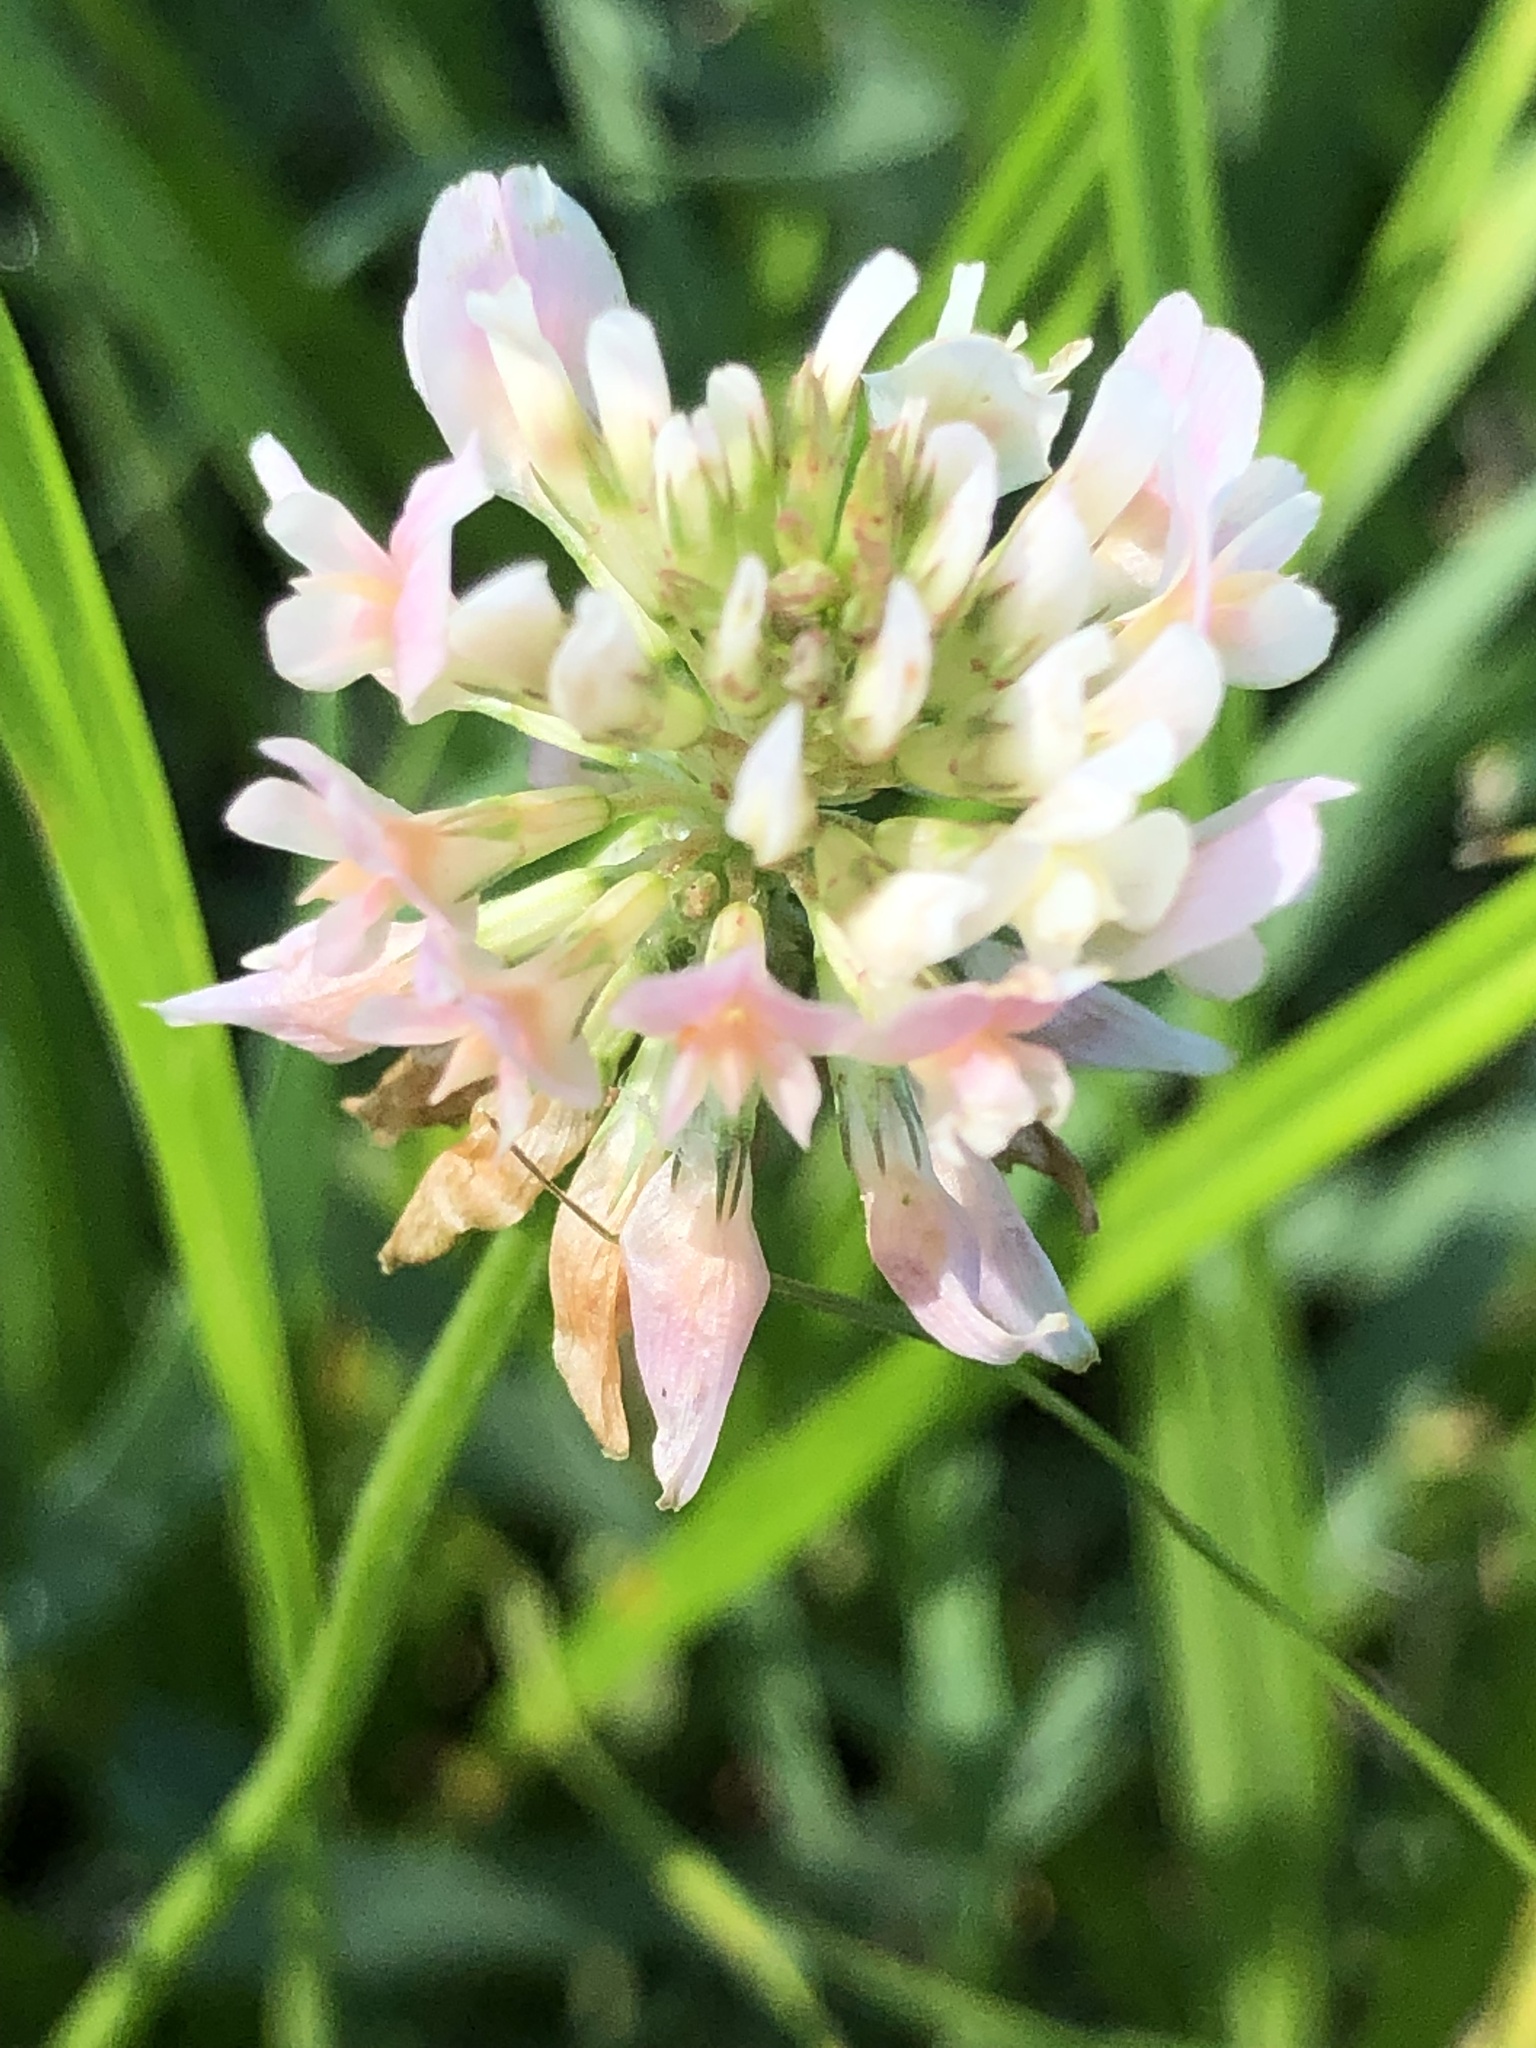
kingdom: Plantae
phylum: Tracheophyta
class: Magnoliopsida
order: Fabales
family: Fabaceae
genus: Trifolium
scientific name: Trifolium repens
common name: White clover
